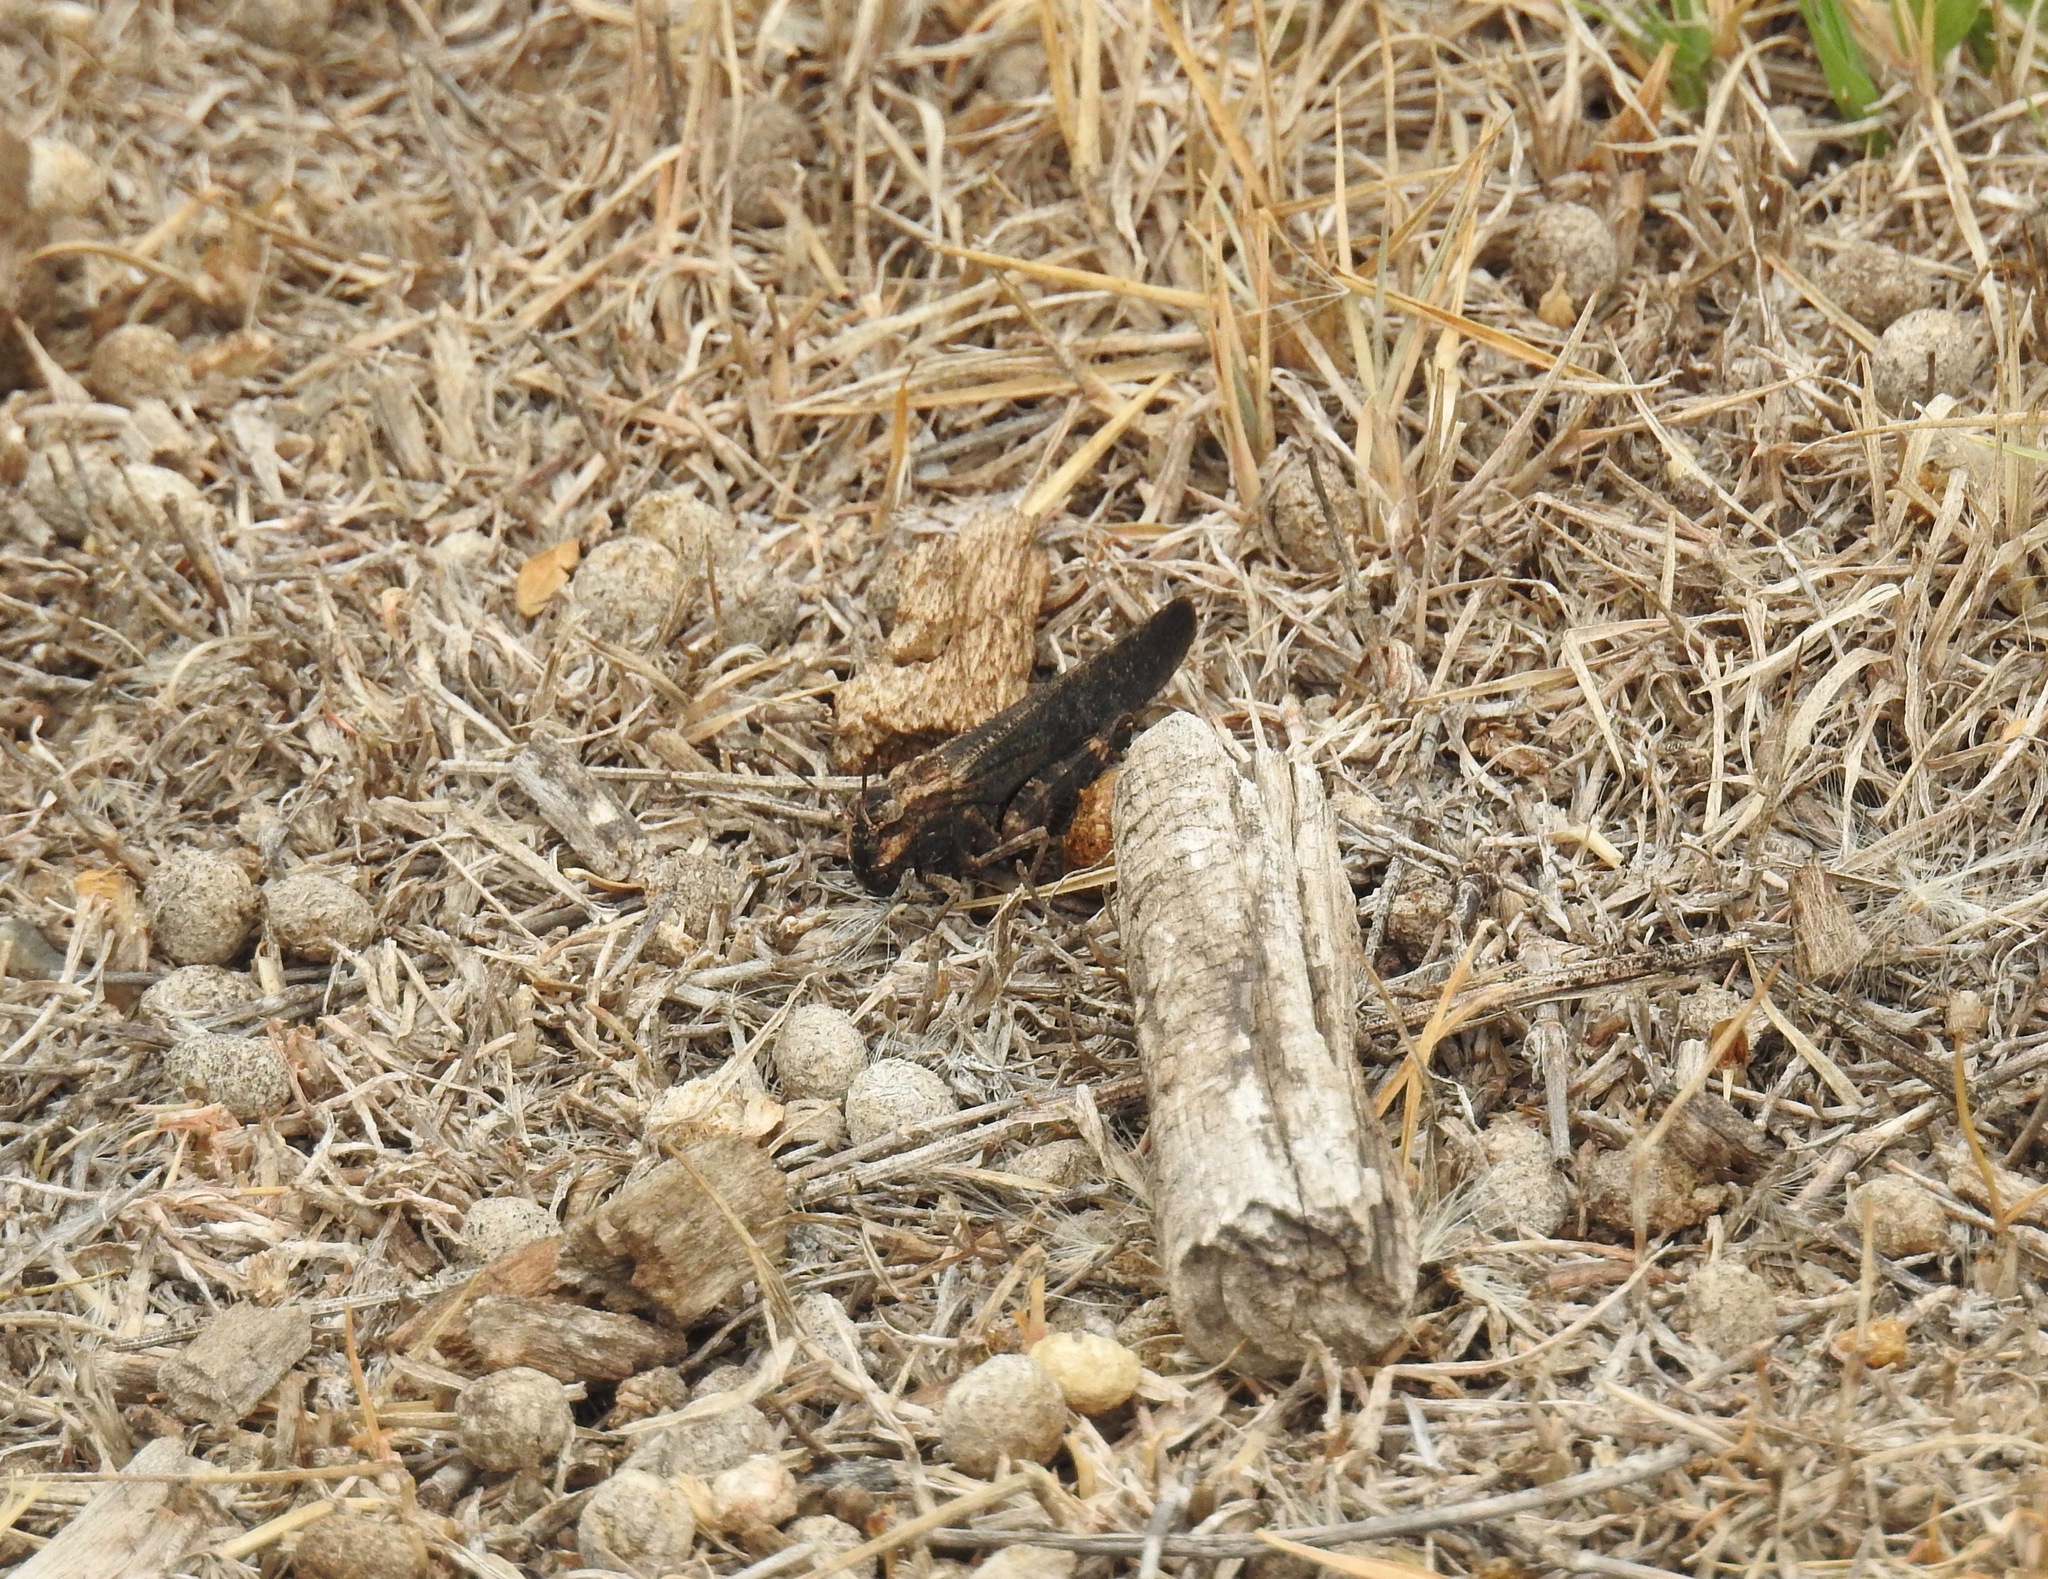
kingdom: Animalia
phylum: Arthropoda
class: Insecta
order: Orthoptera
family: Acrididae
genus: Arphia
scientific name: Arphia pseudo-nietana
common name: Red-winged grasshopper
